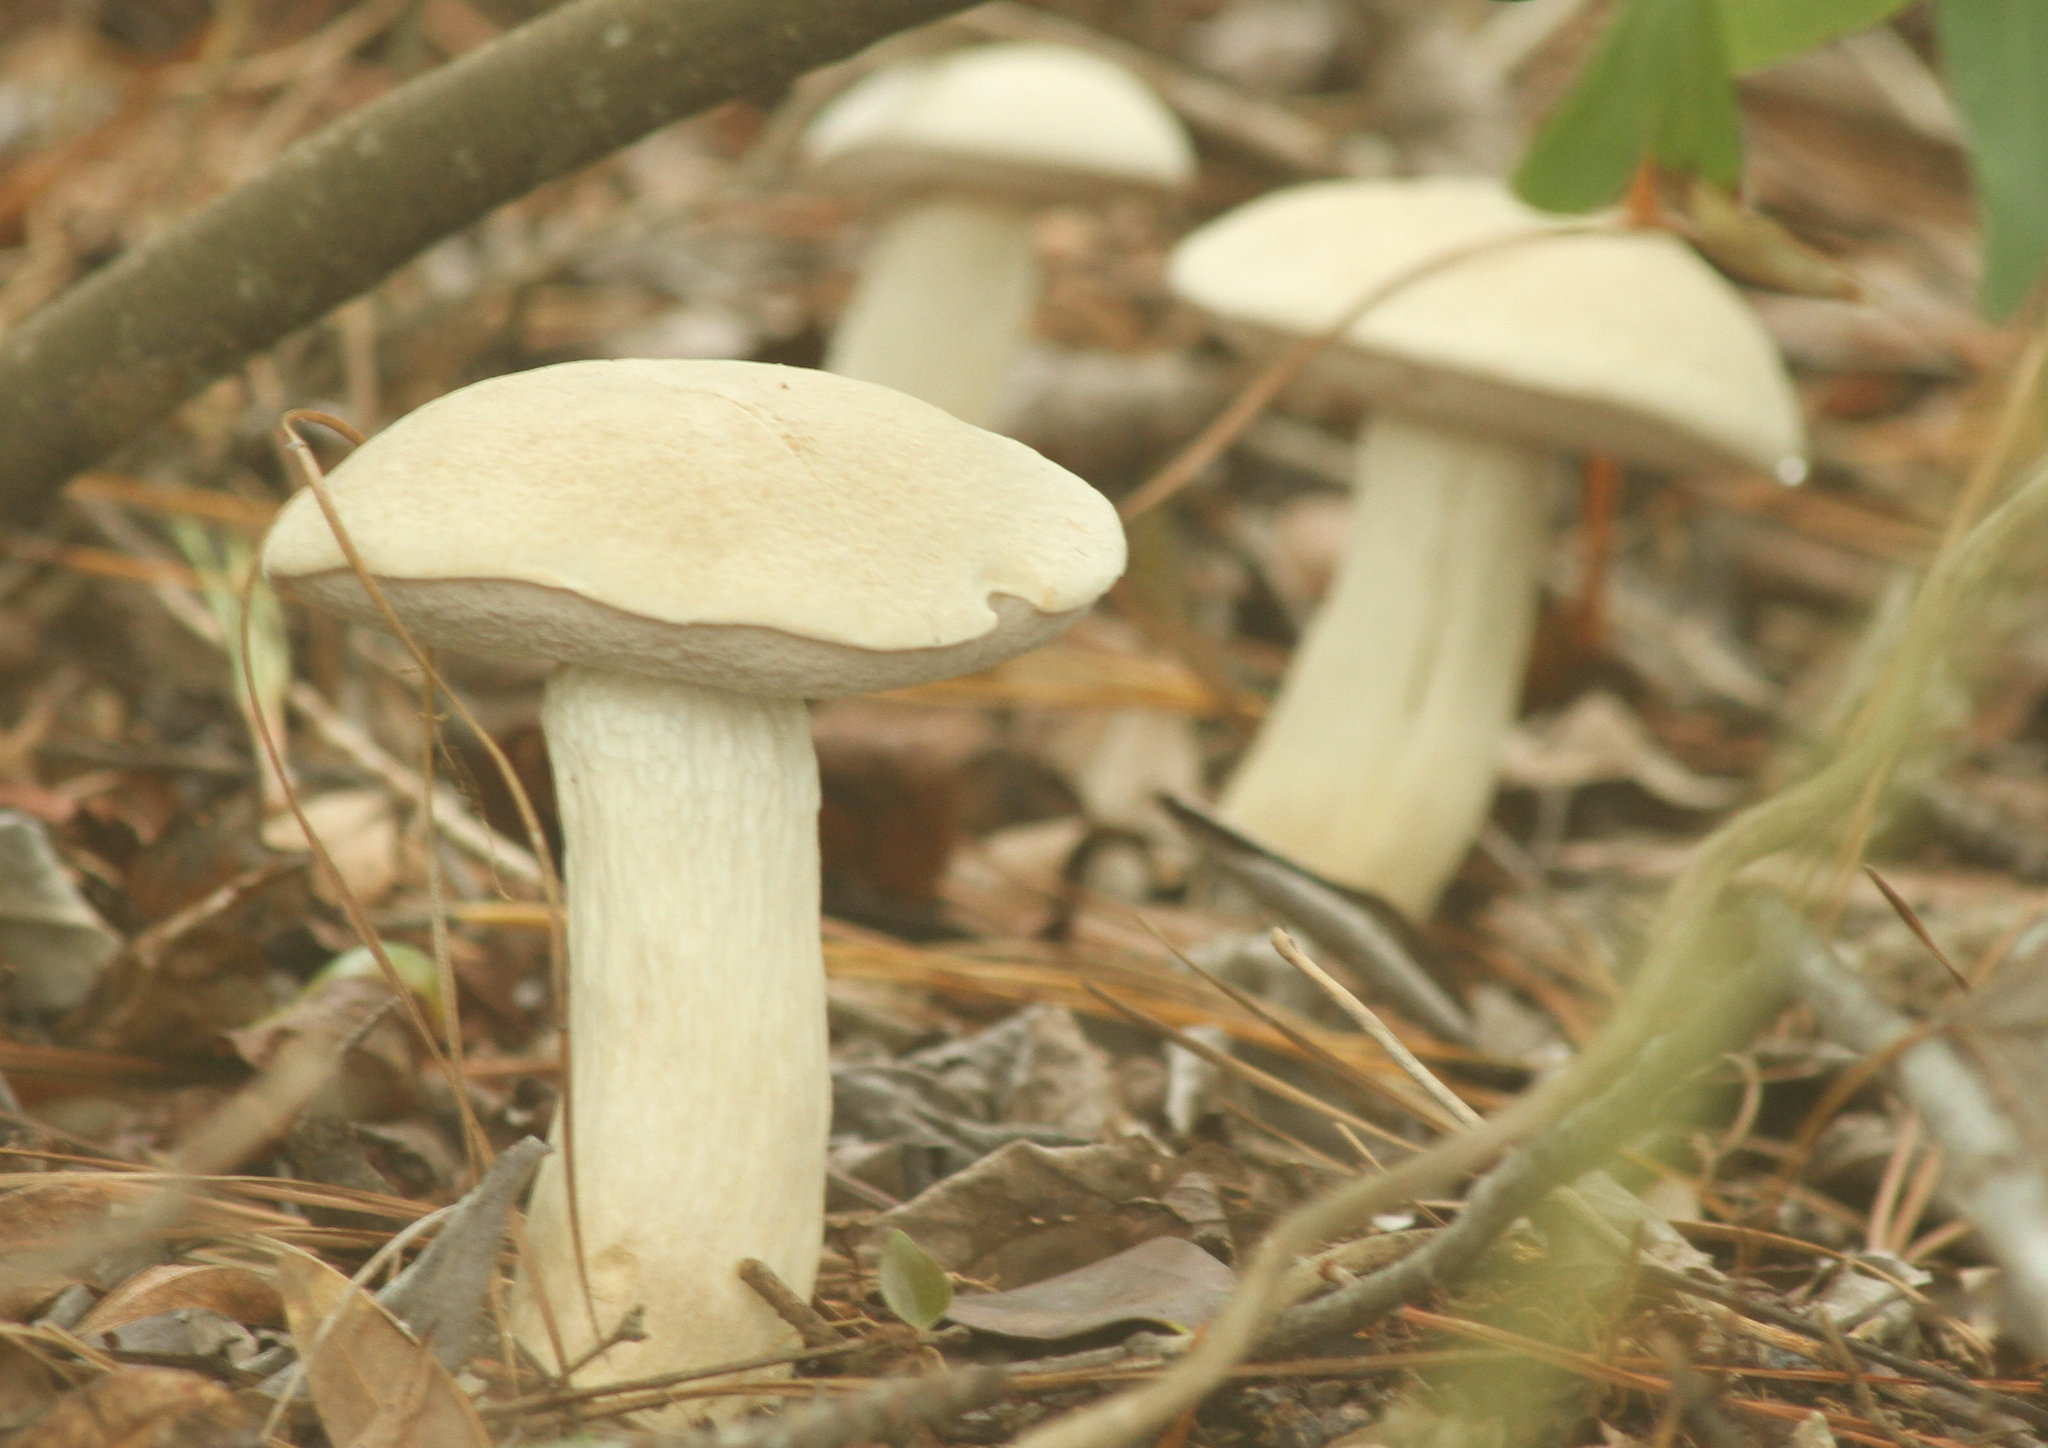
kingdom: Fungi
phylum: Basidiomycota
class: Agaricomycetes
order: Boletales
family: Boletaceae
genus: Tylopilus
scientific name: Tylopilus rhoadsiae
